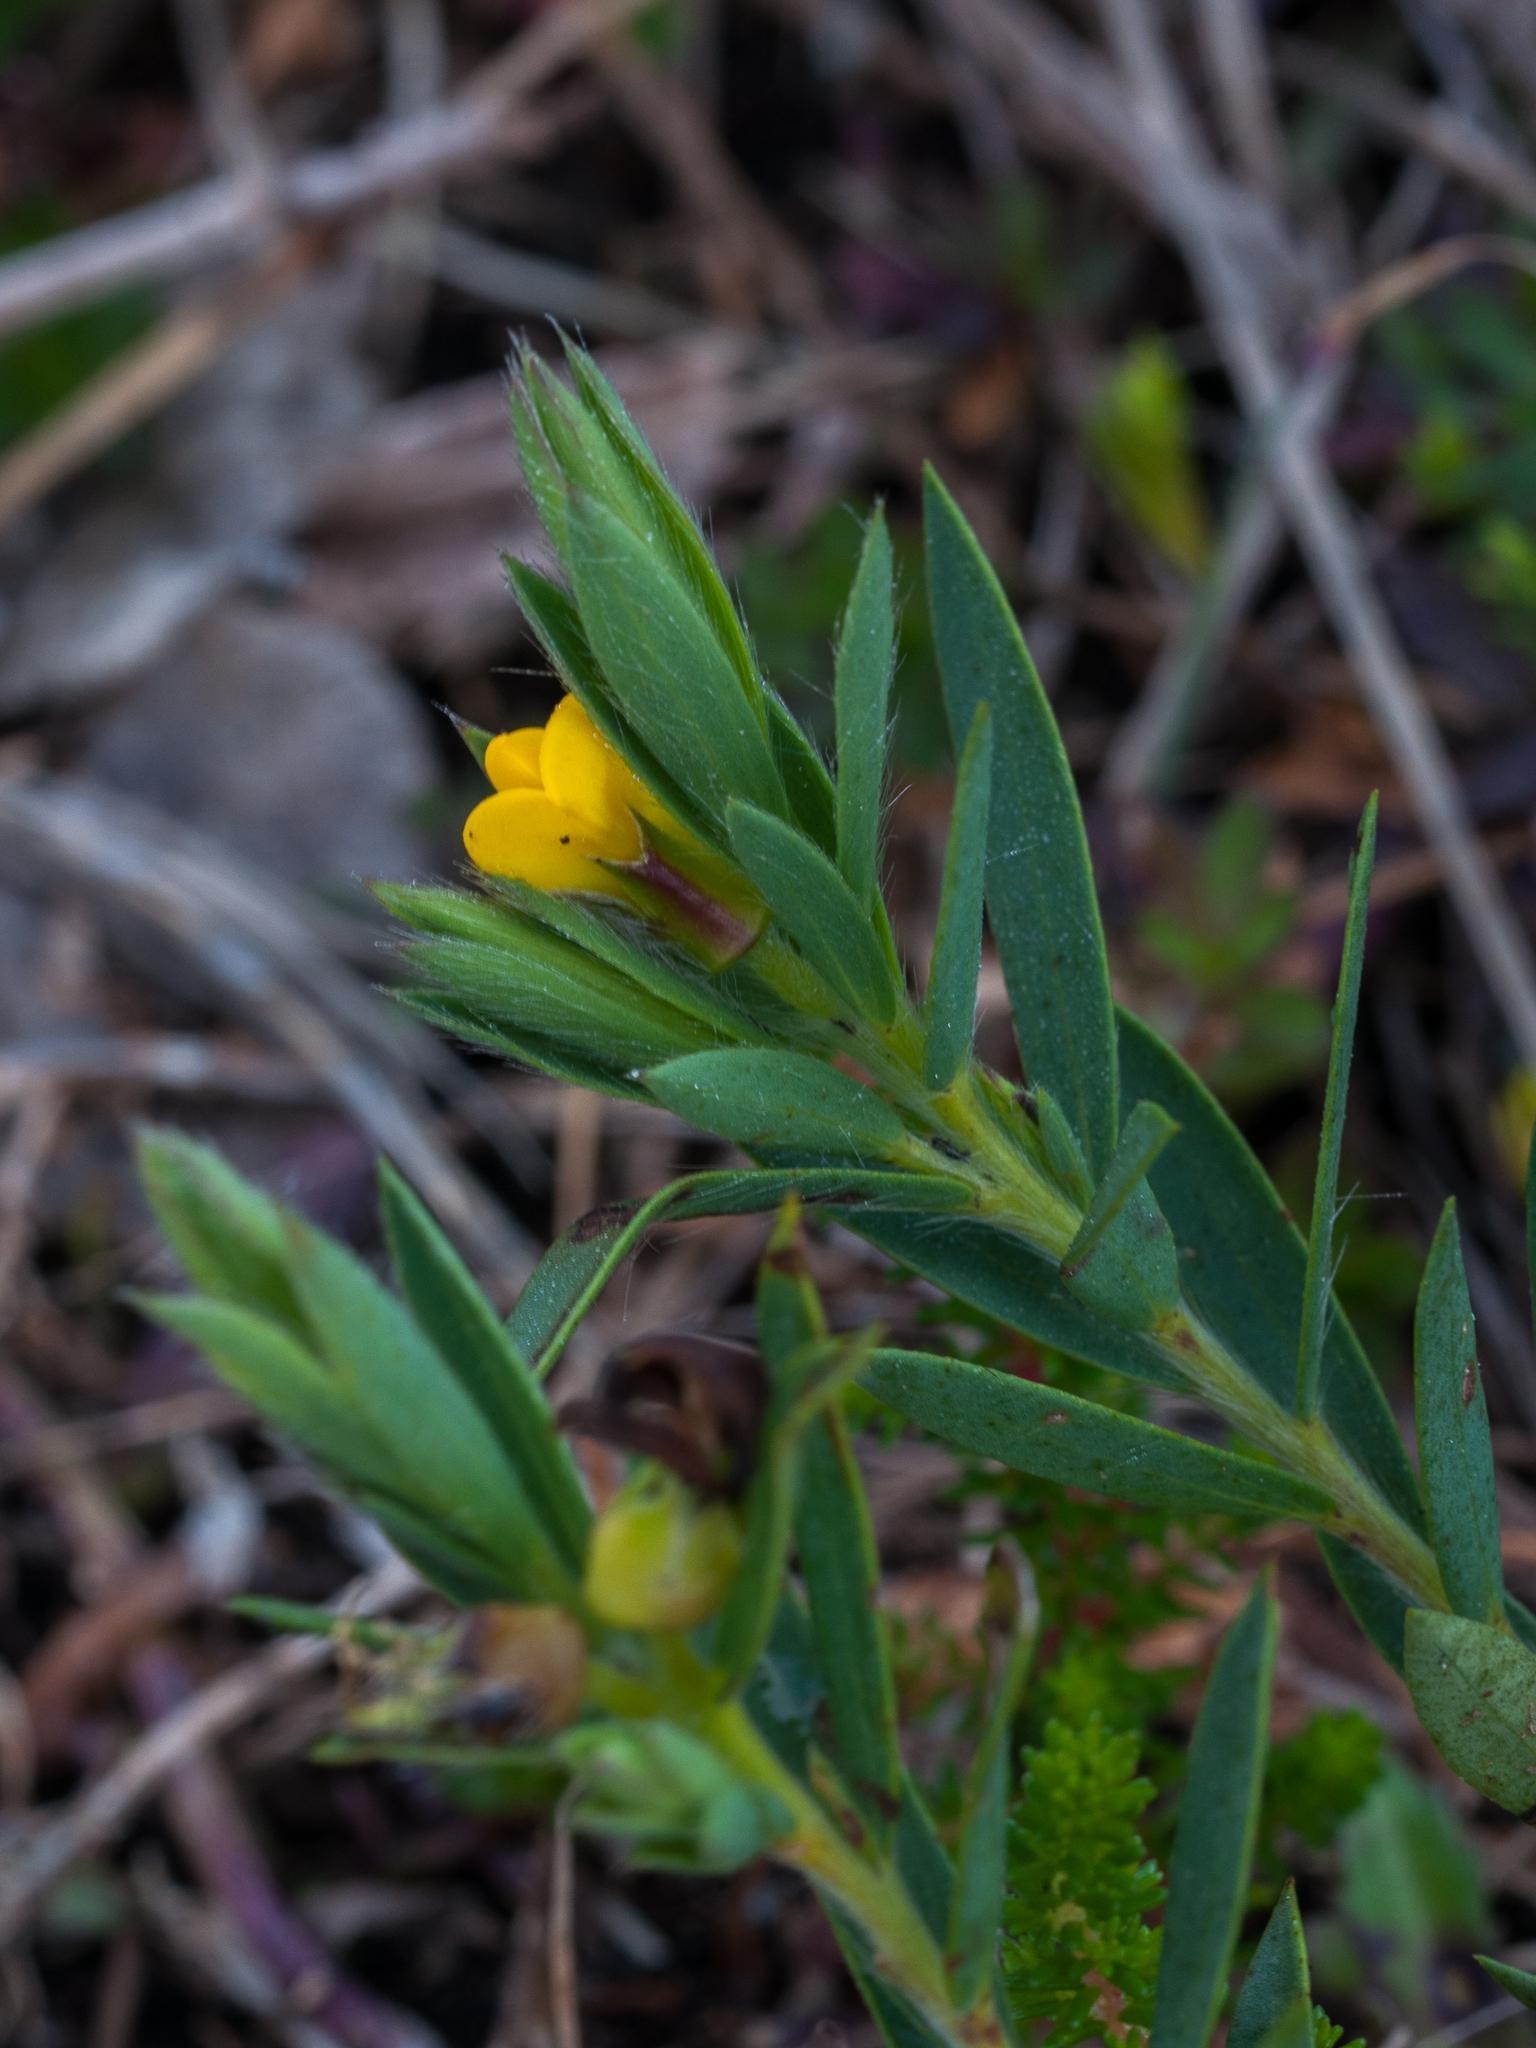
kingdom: Plantae
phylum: Tracheophyta
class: Magnoliopsida
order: Fabales
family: Fabaceae
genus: Liparia
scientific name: Liparia angustifolia
